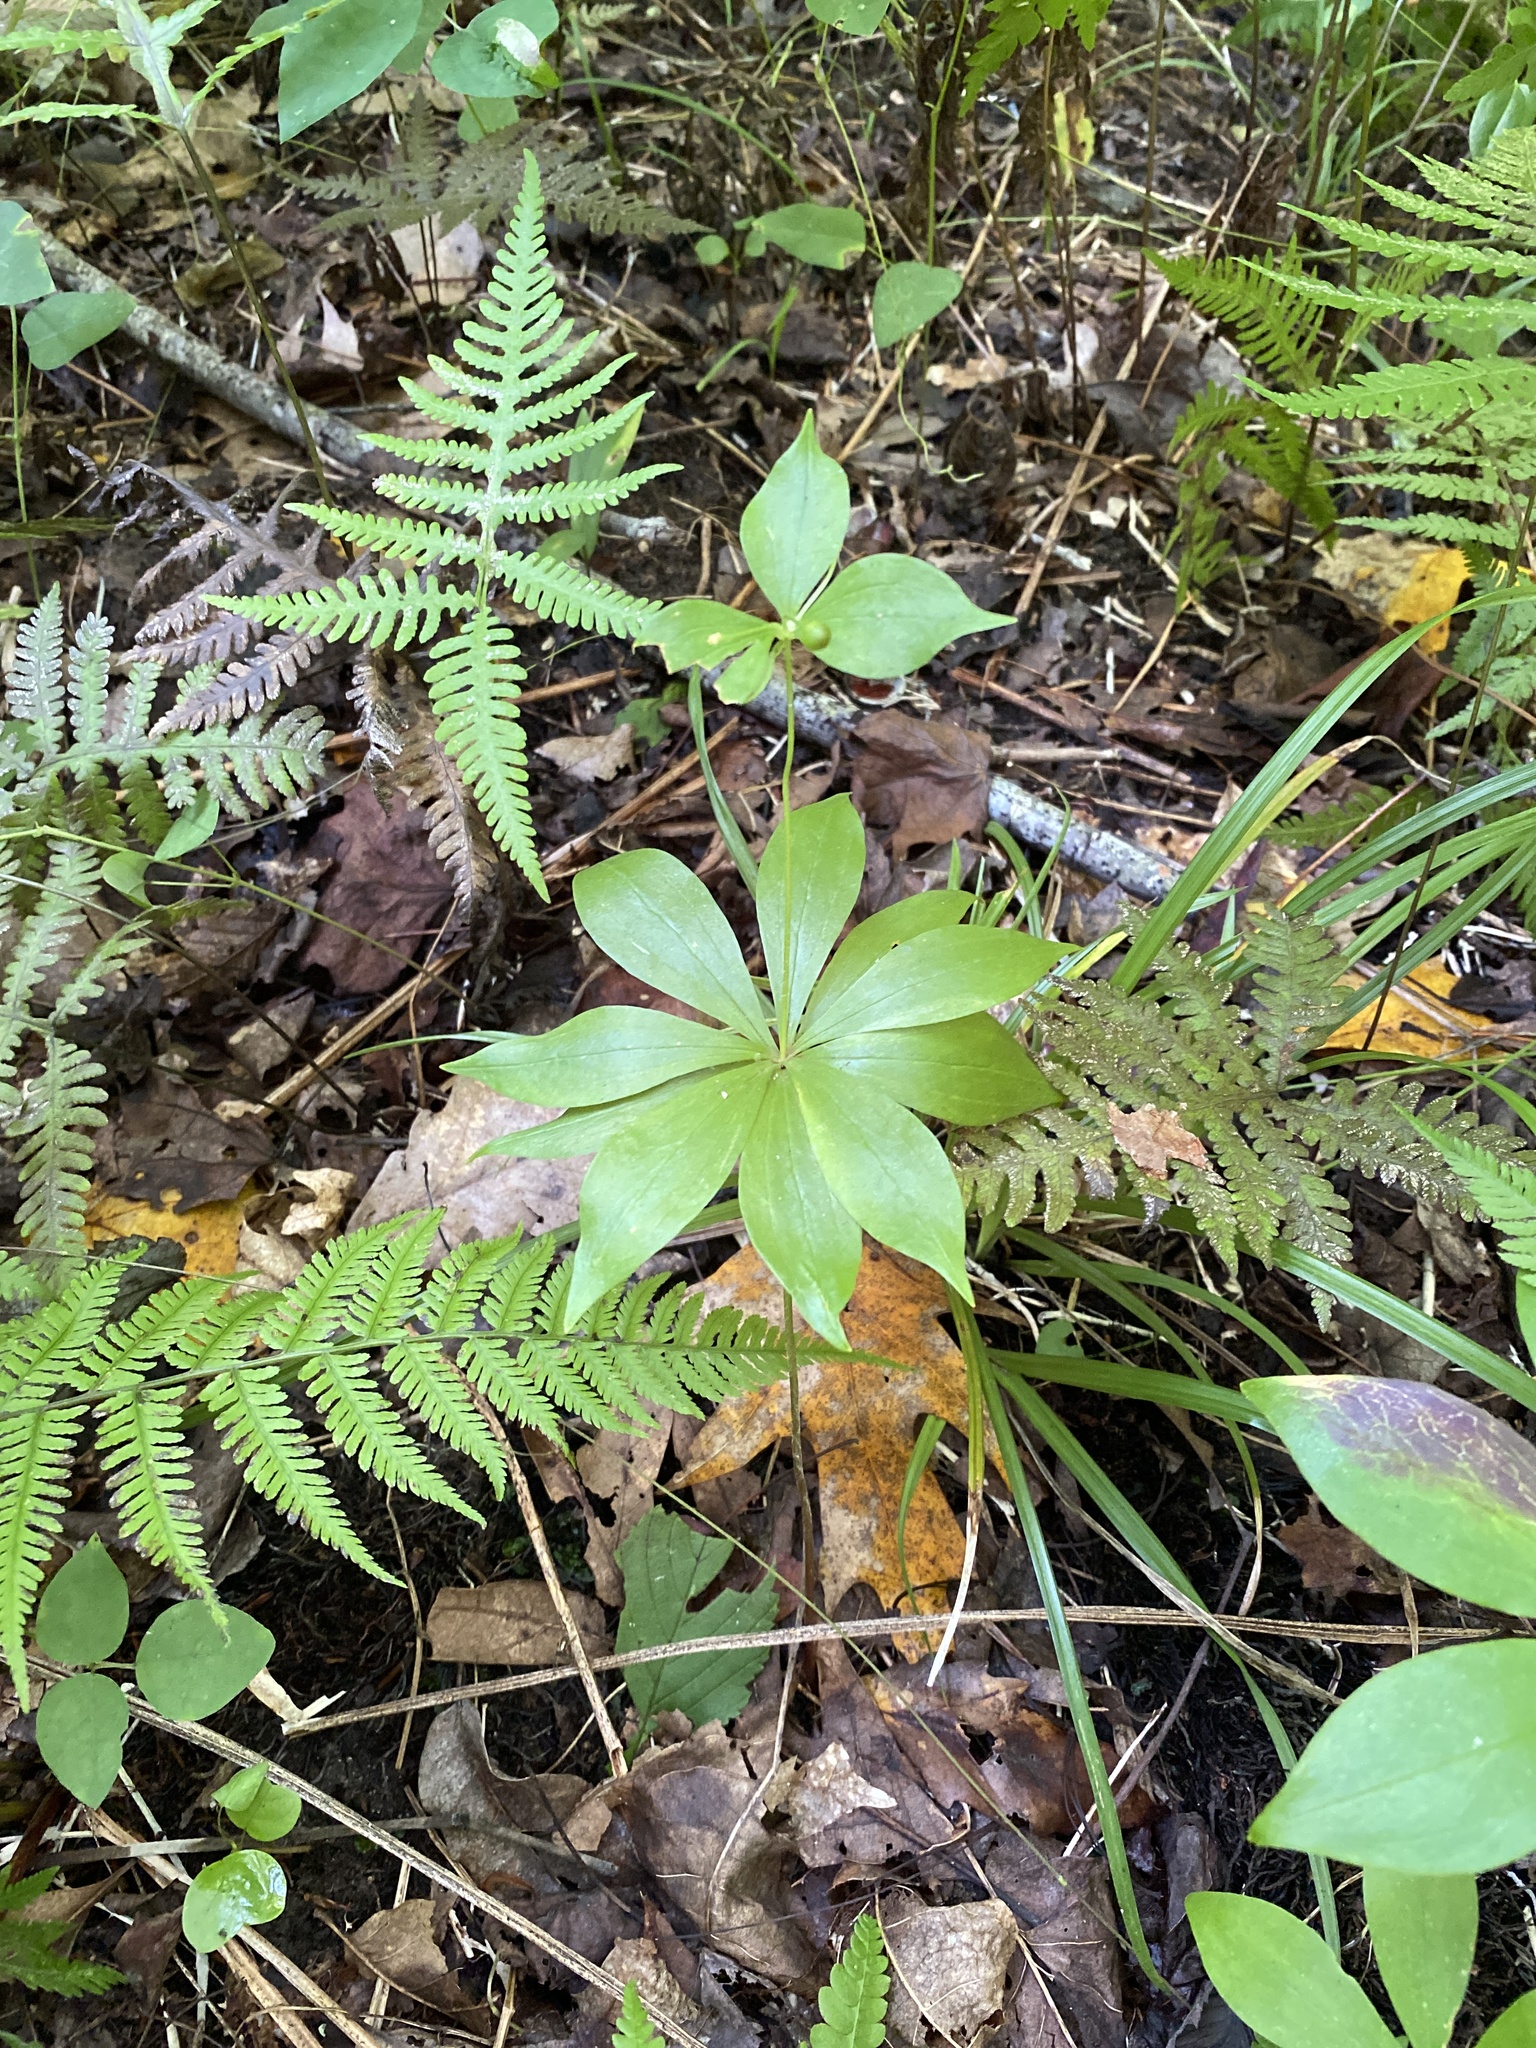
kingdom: Plantae
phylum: Tracheophyta
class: Liliopsida
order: Liliales
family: Liliaceae
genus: Medeola
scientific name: Medeola virginiana
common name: Indian cucumber-root
